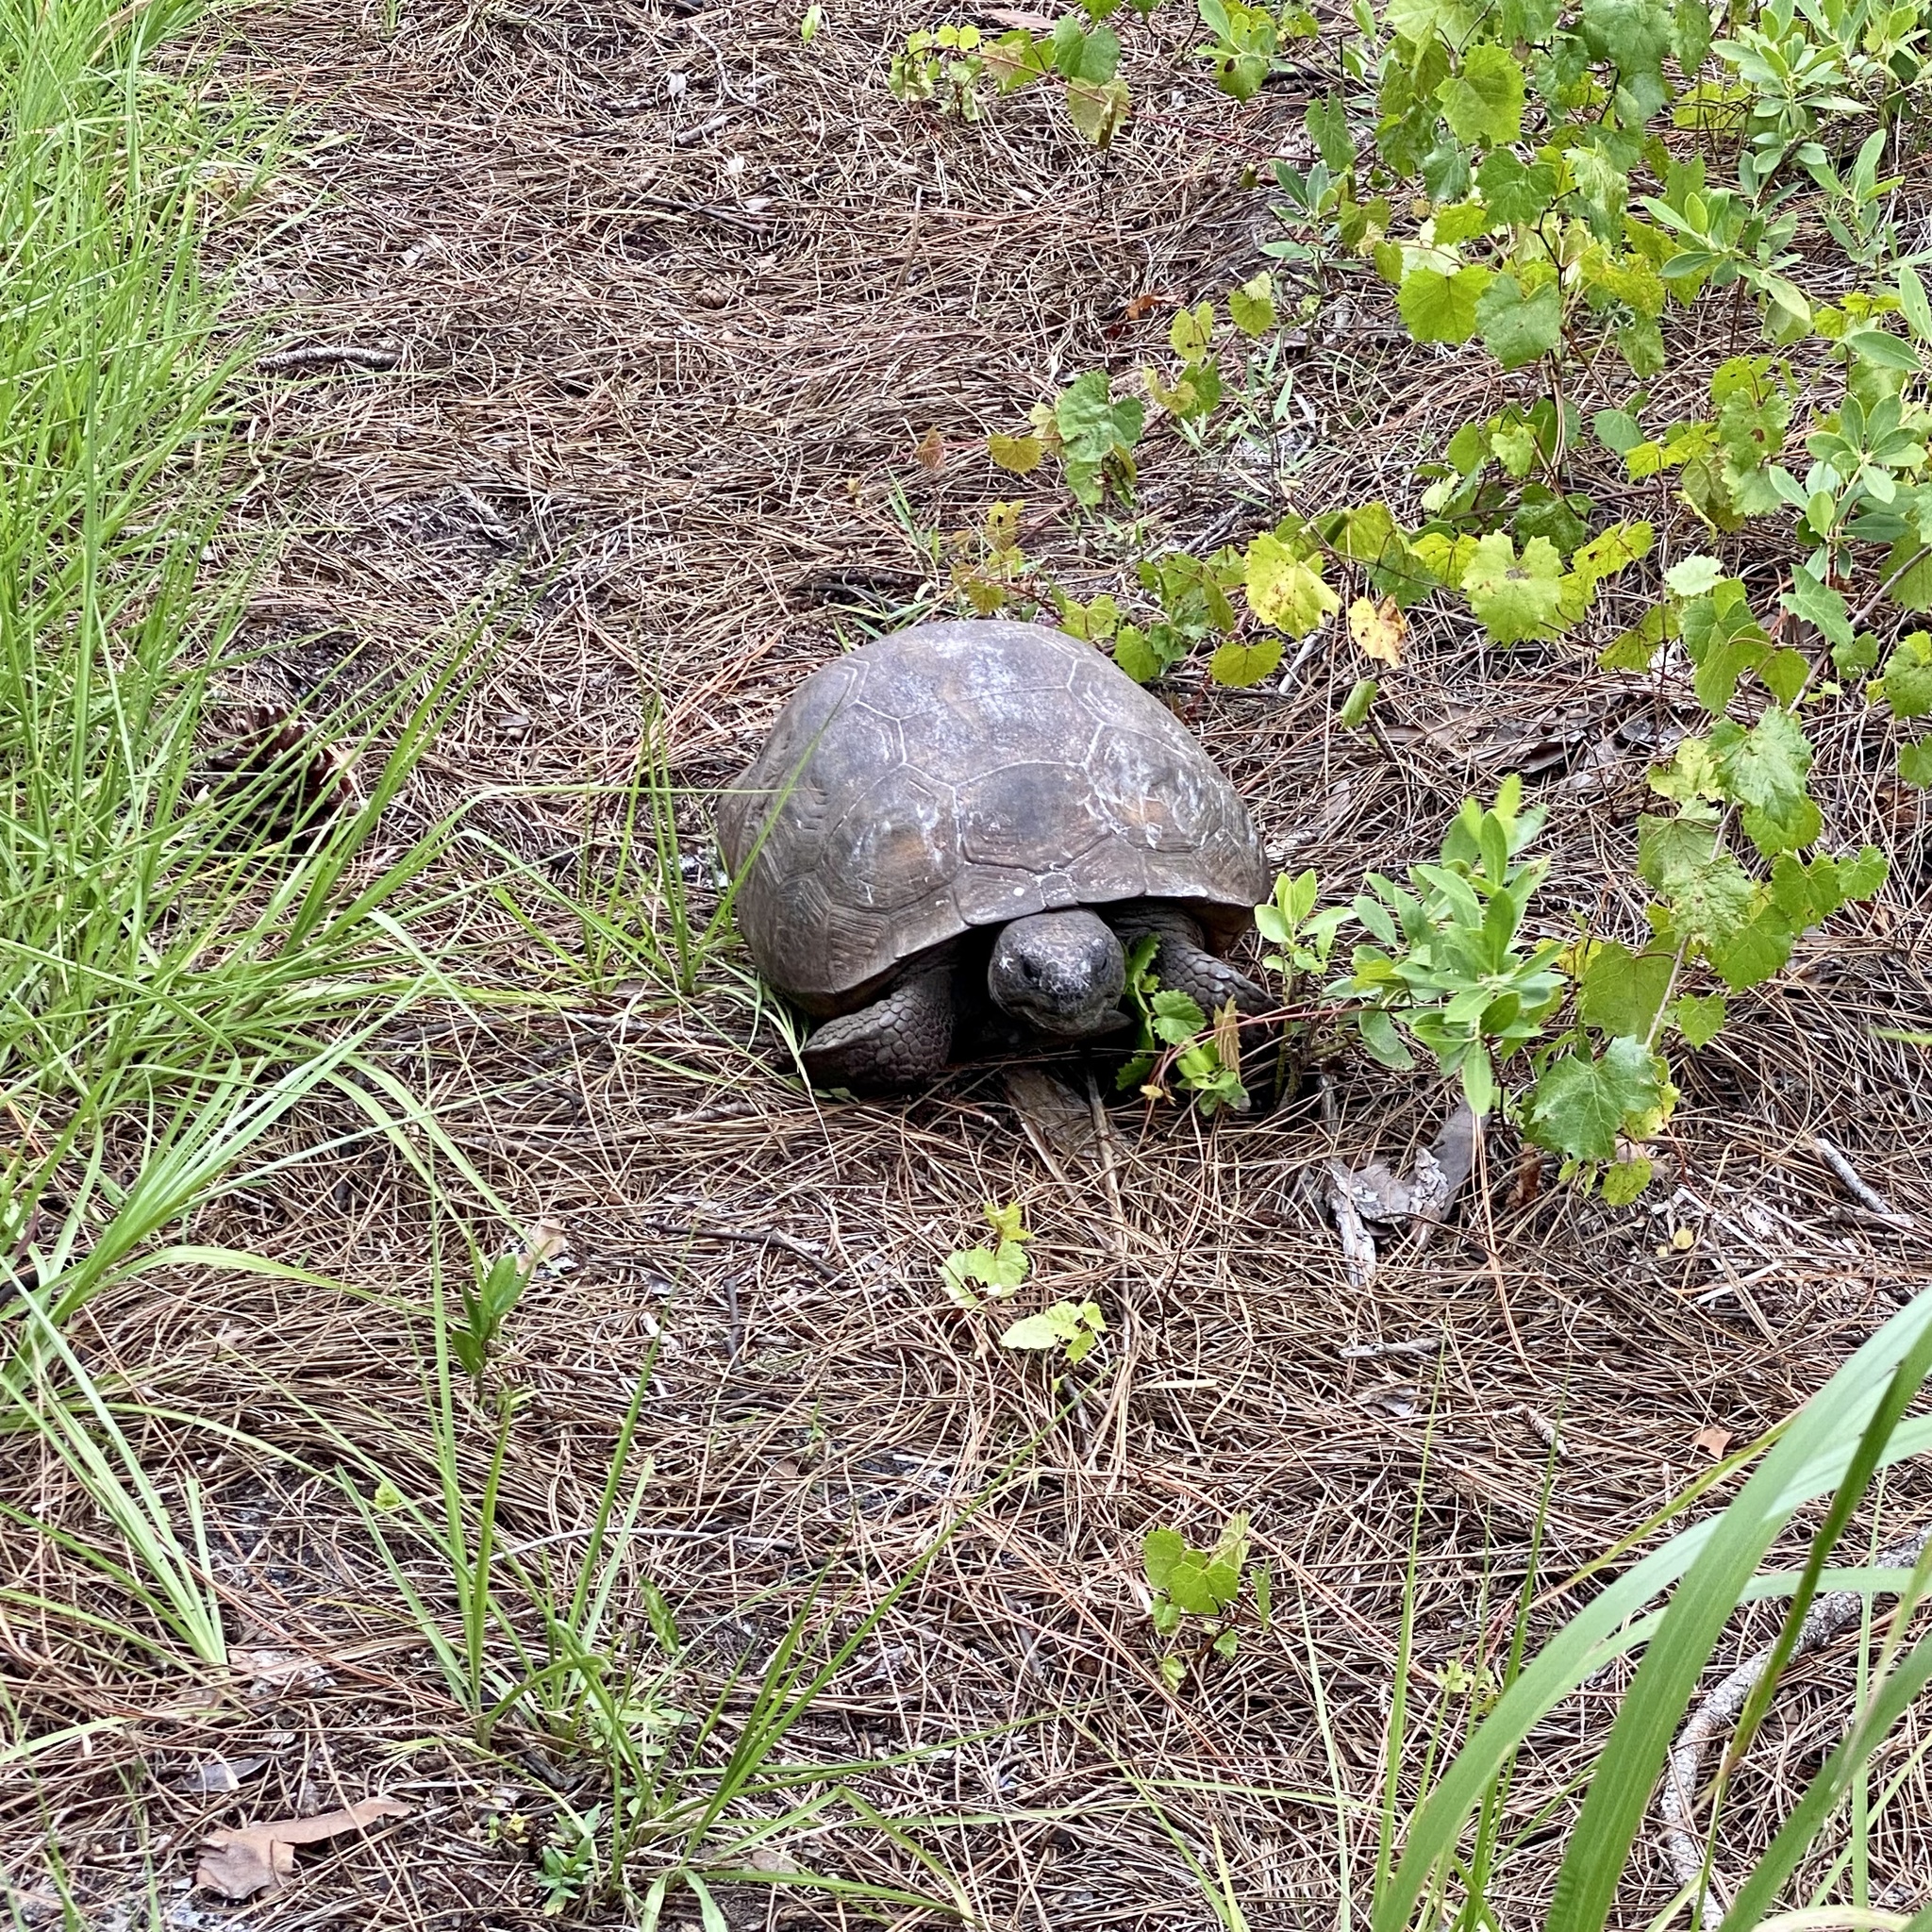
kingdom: Animalia
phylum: Chordata
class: Testudines
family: Testudinidae
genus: Gopherus
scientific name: Gopherus polyphemus
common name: Florida gopher tortoise
